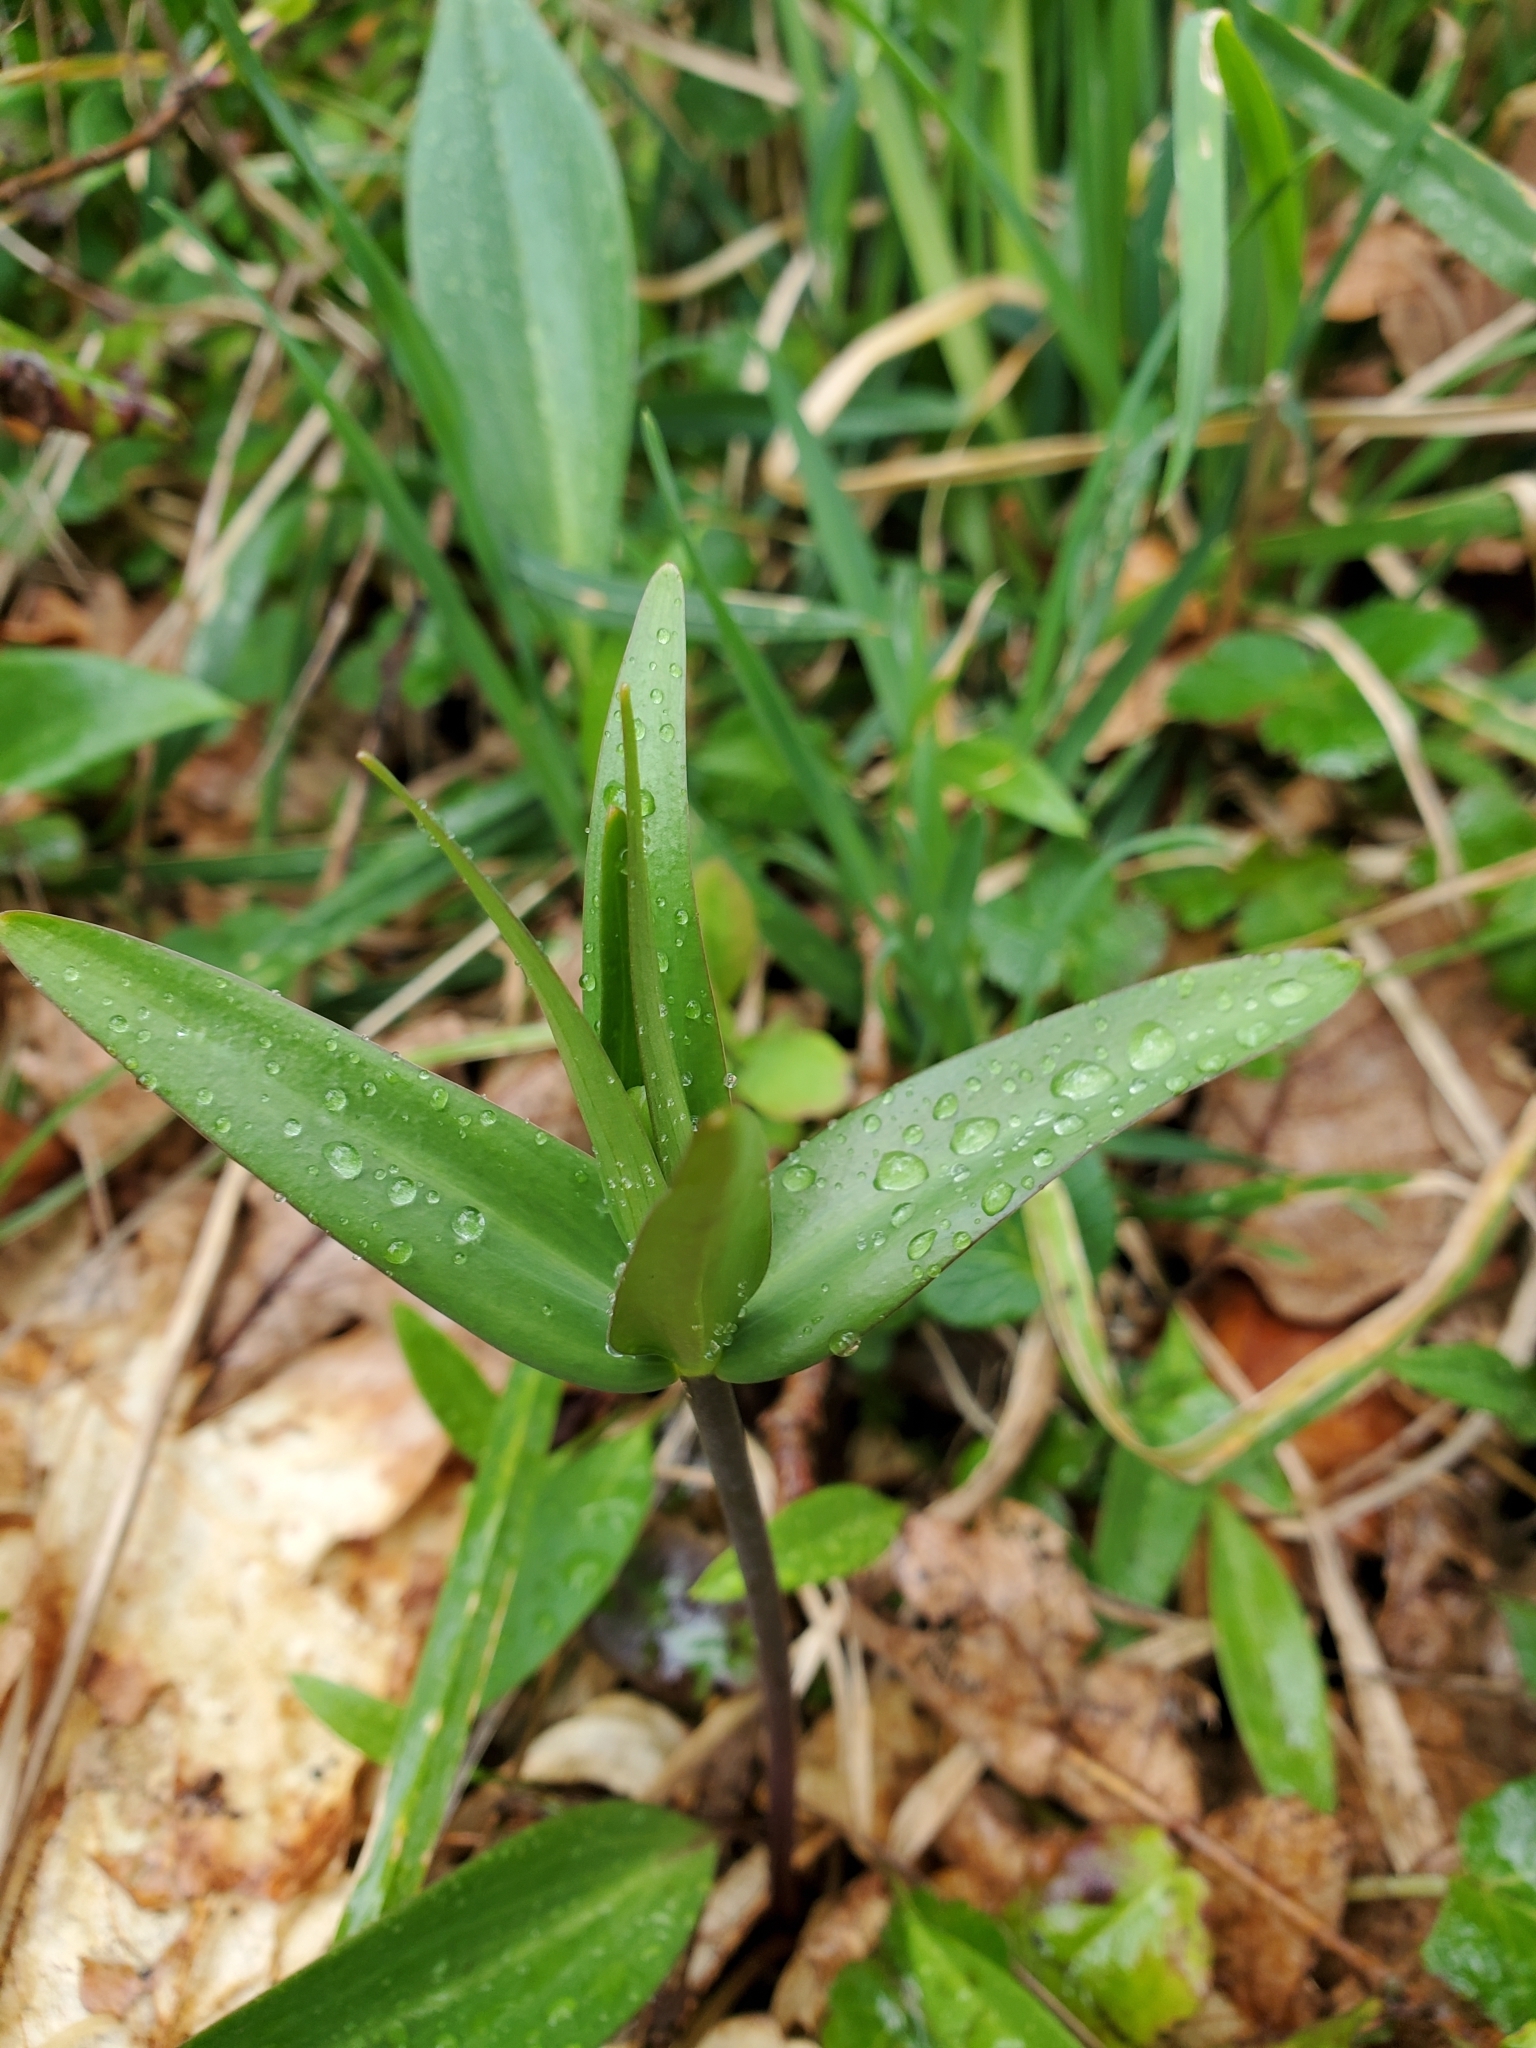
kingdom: Plantae
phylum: Tracheophyta
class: Liliopsida
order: Liliales
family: Liliaceae
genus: Fritillaria
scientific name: Fritillaria affinis
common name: Ojai fritillary
